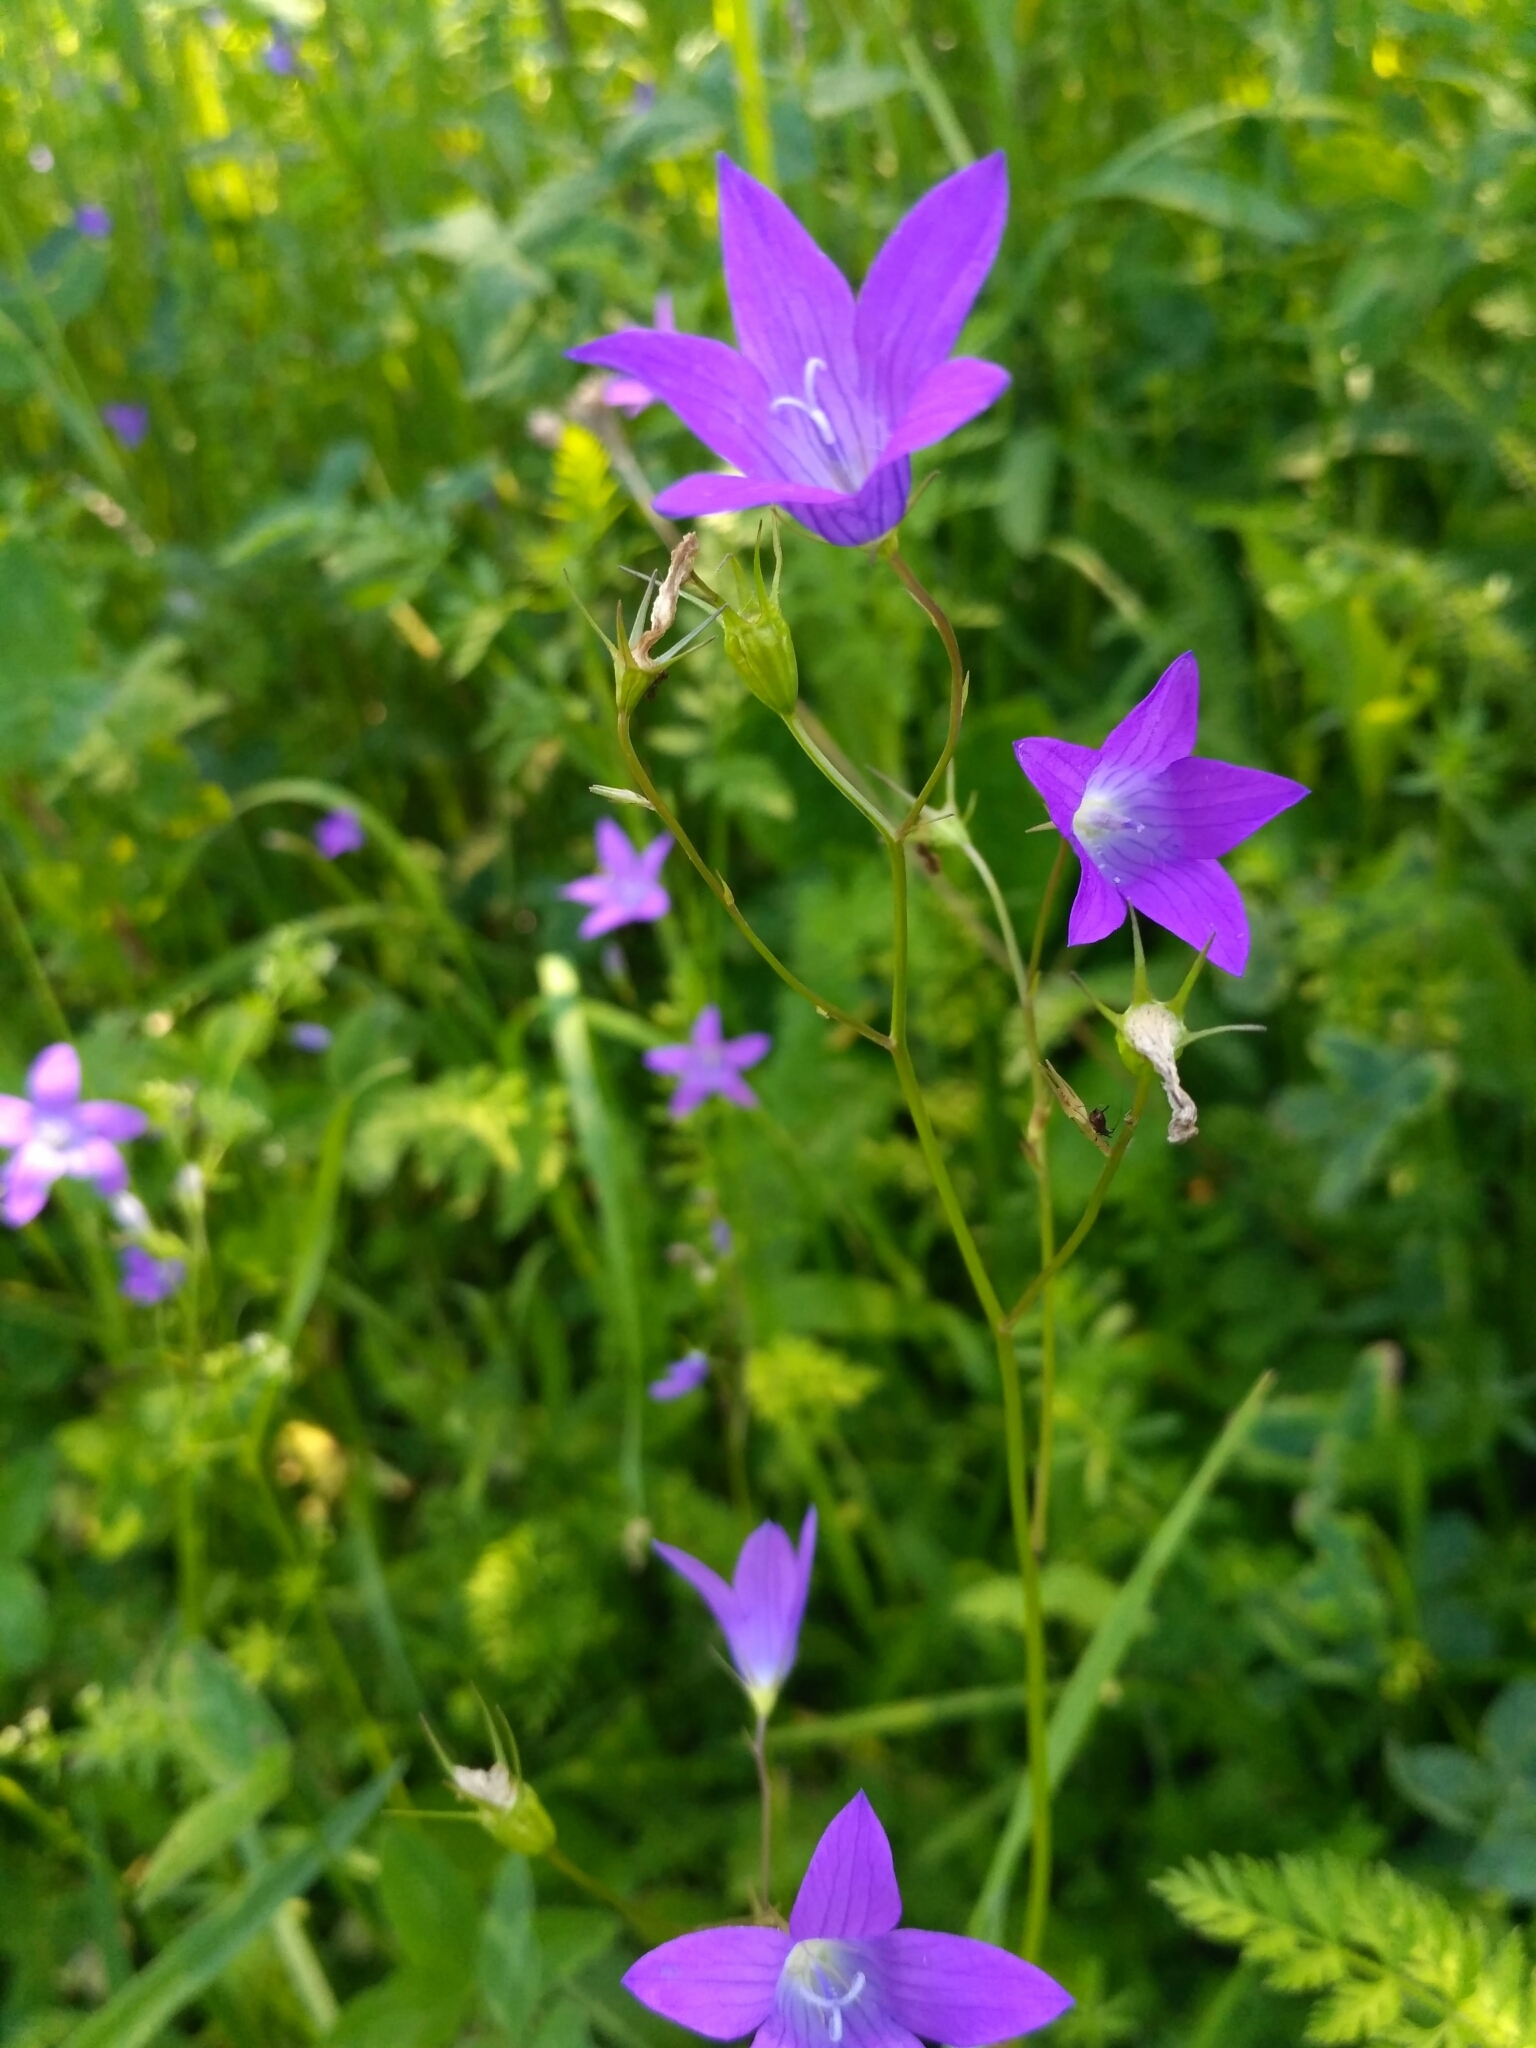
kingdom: Plantae
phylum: Tracheophyta
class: Magnoliopsida
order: Asterales
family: Campanulaceae
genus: Campanula
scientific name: Campanula patula
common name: Spreading bellflower
